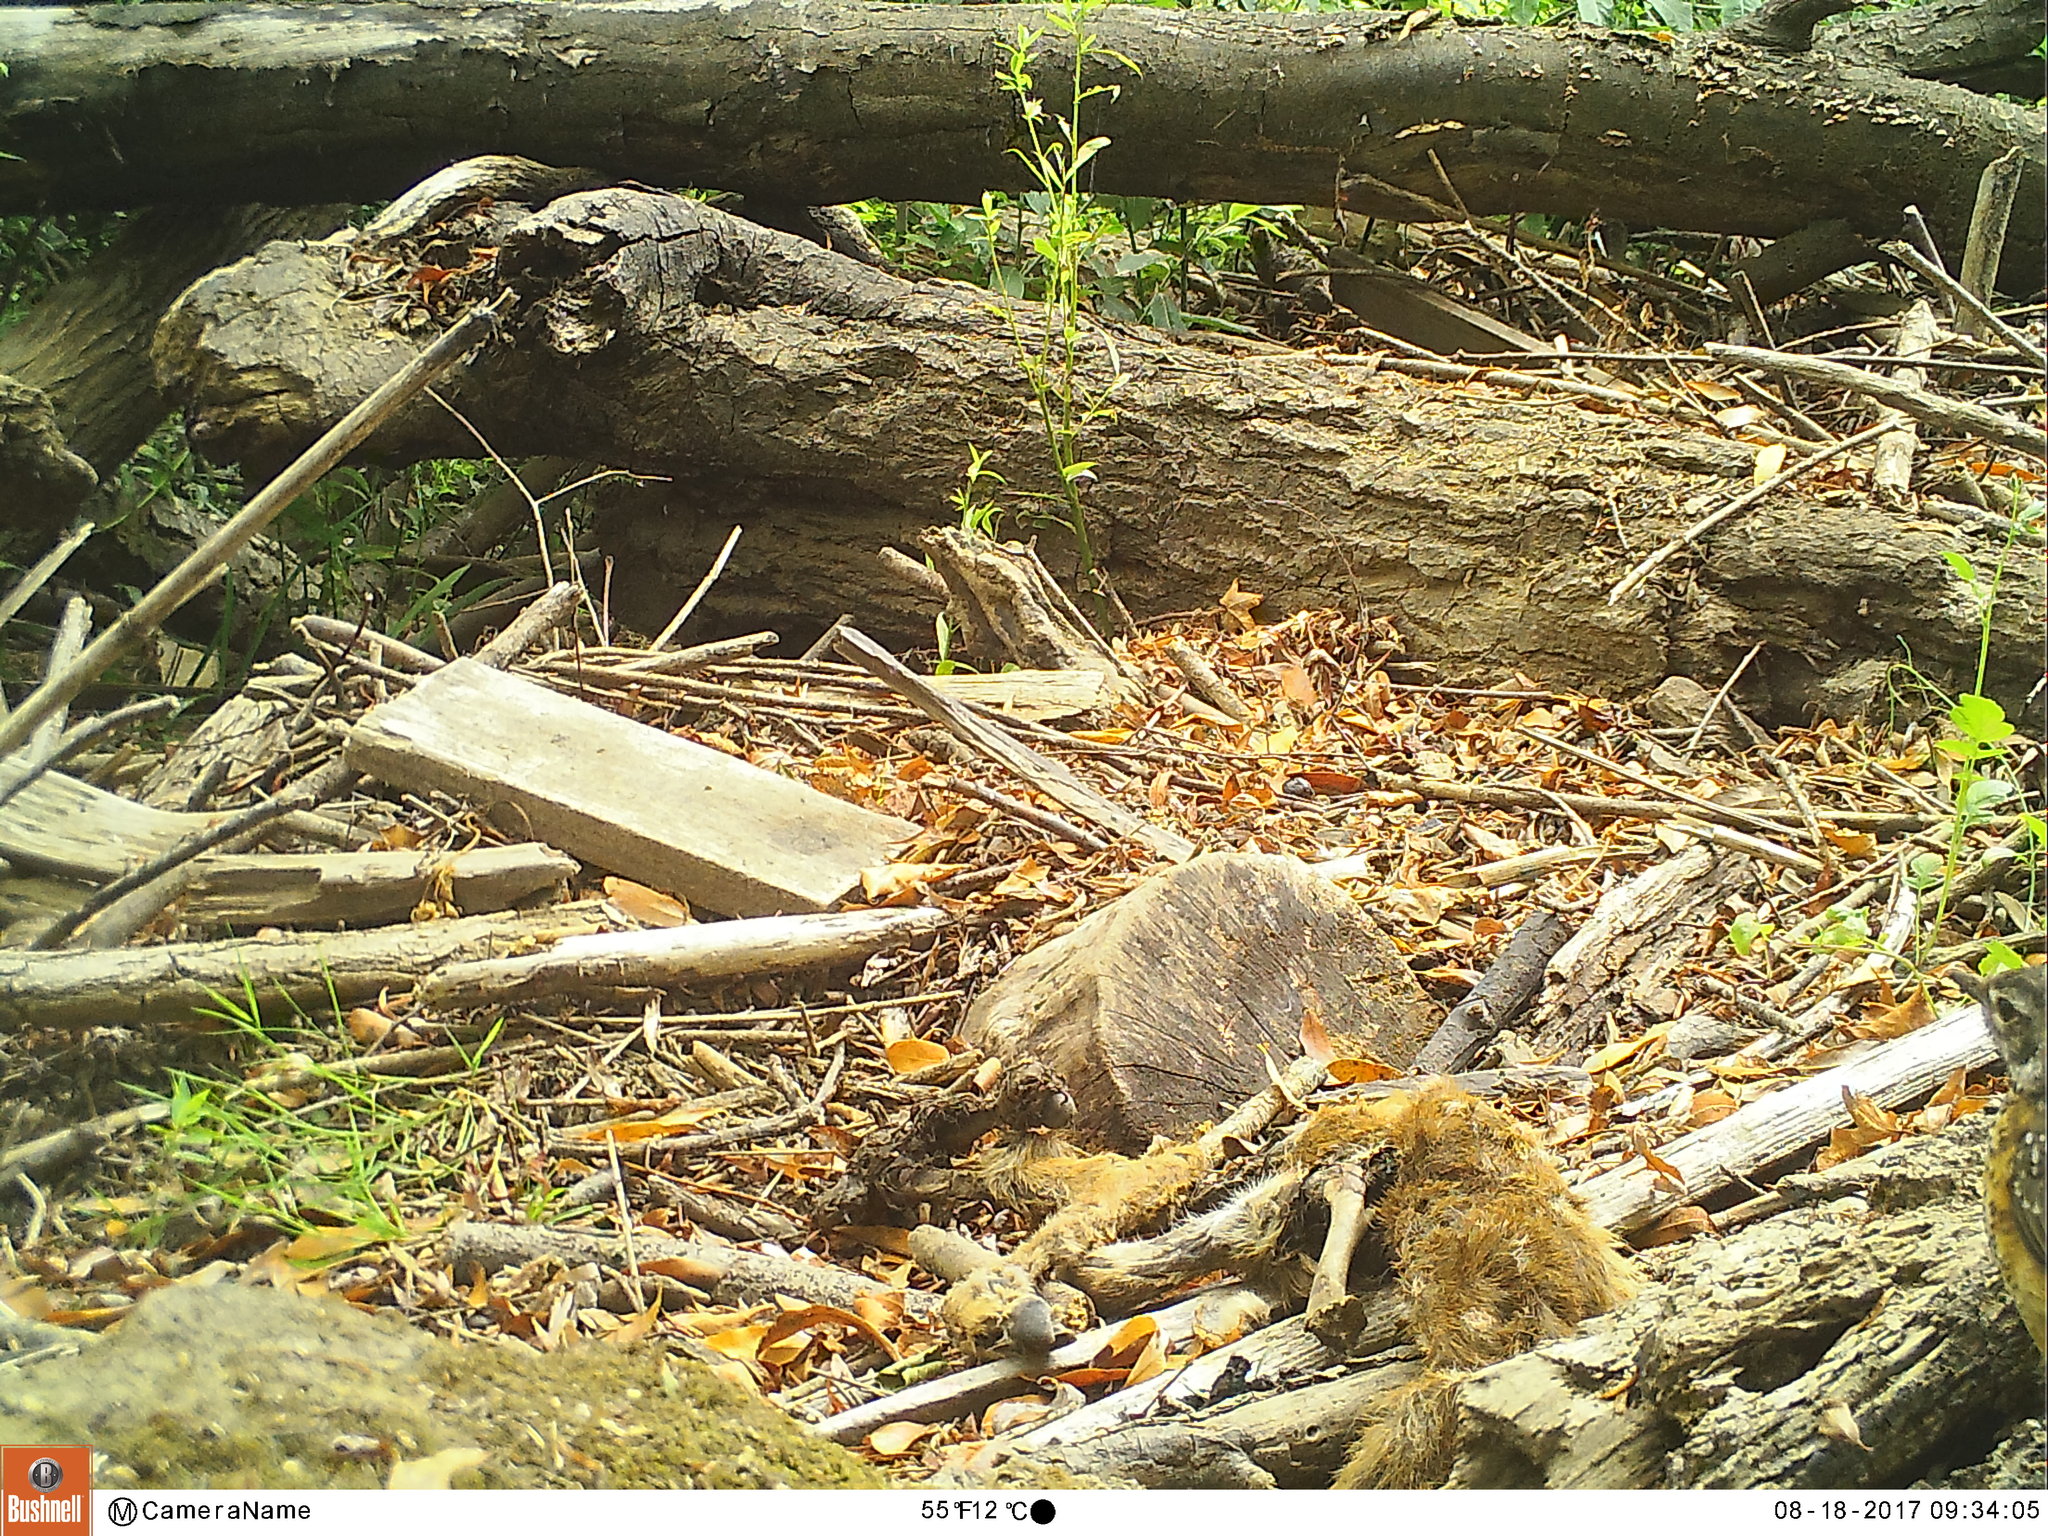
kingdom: Animalia
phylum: Chordata
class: Aves
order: Passeriformes
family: Turdidae
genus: Turdus
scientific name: Turdus migratorius
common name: American robin
